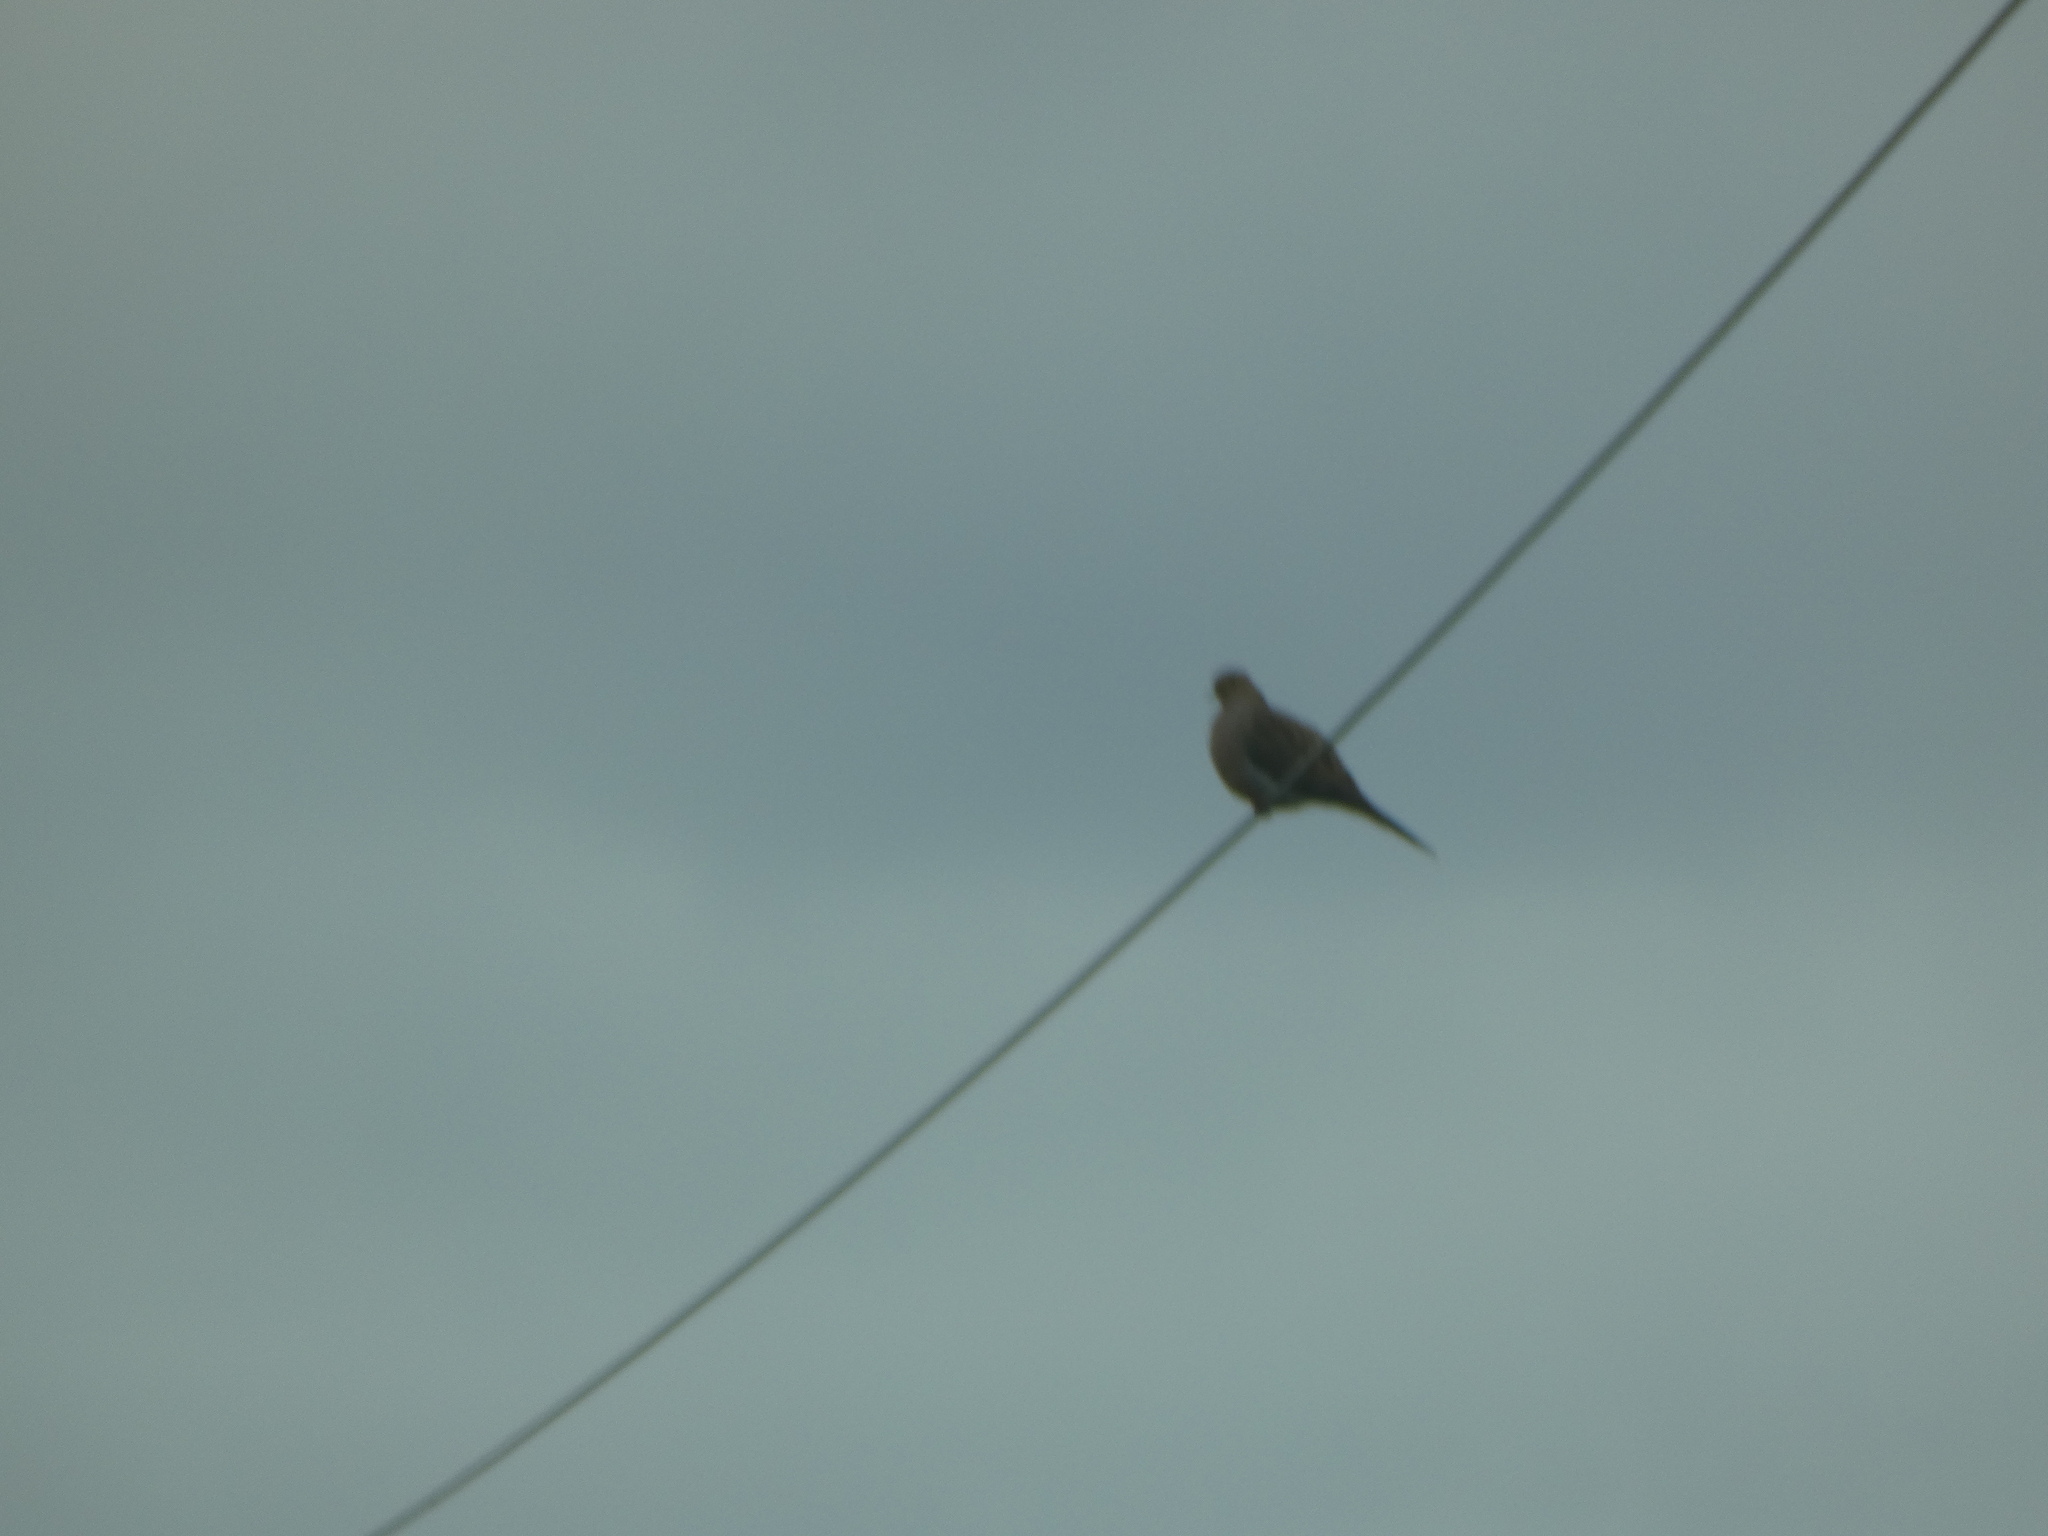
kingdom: Animalia
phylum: Chordata
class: Aves
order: Columbiformes
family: Columbidae
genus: Zenaida
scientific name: Zenaida macroura
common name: Mourning dove
